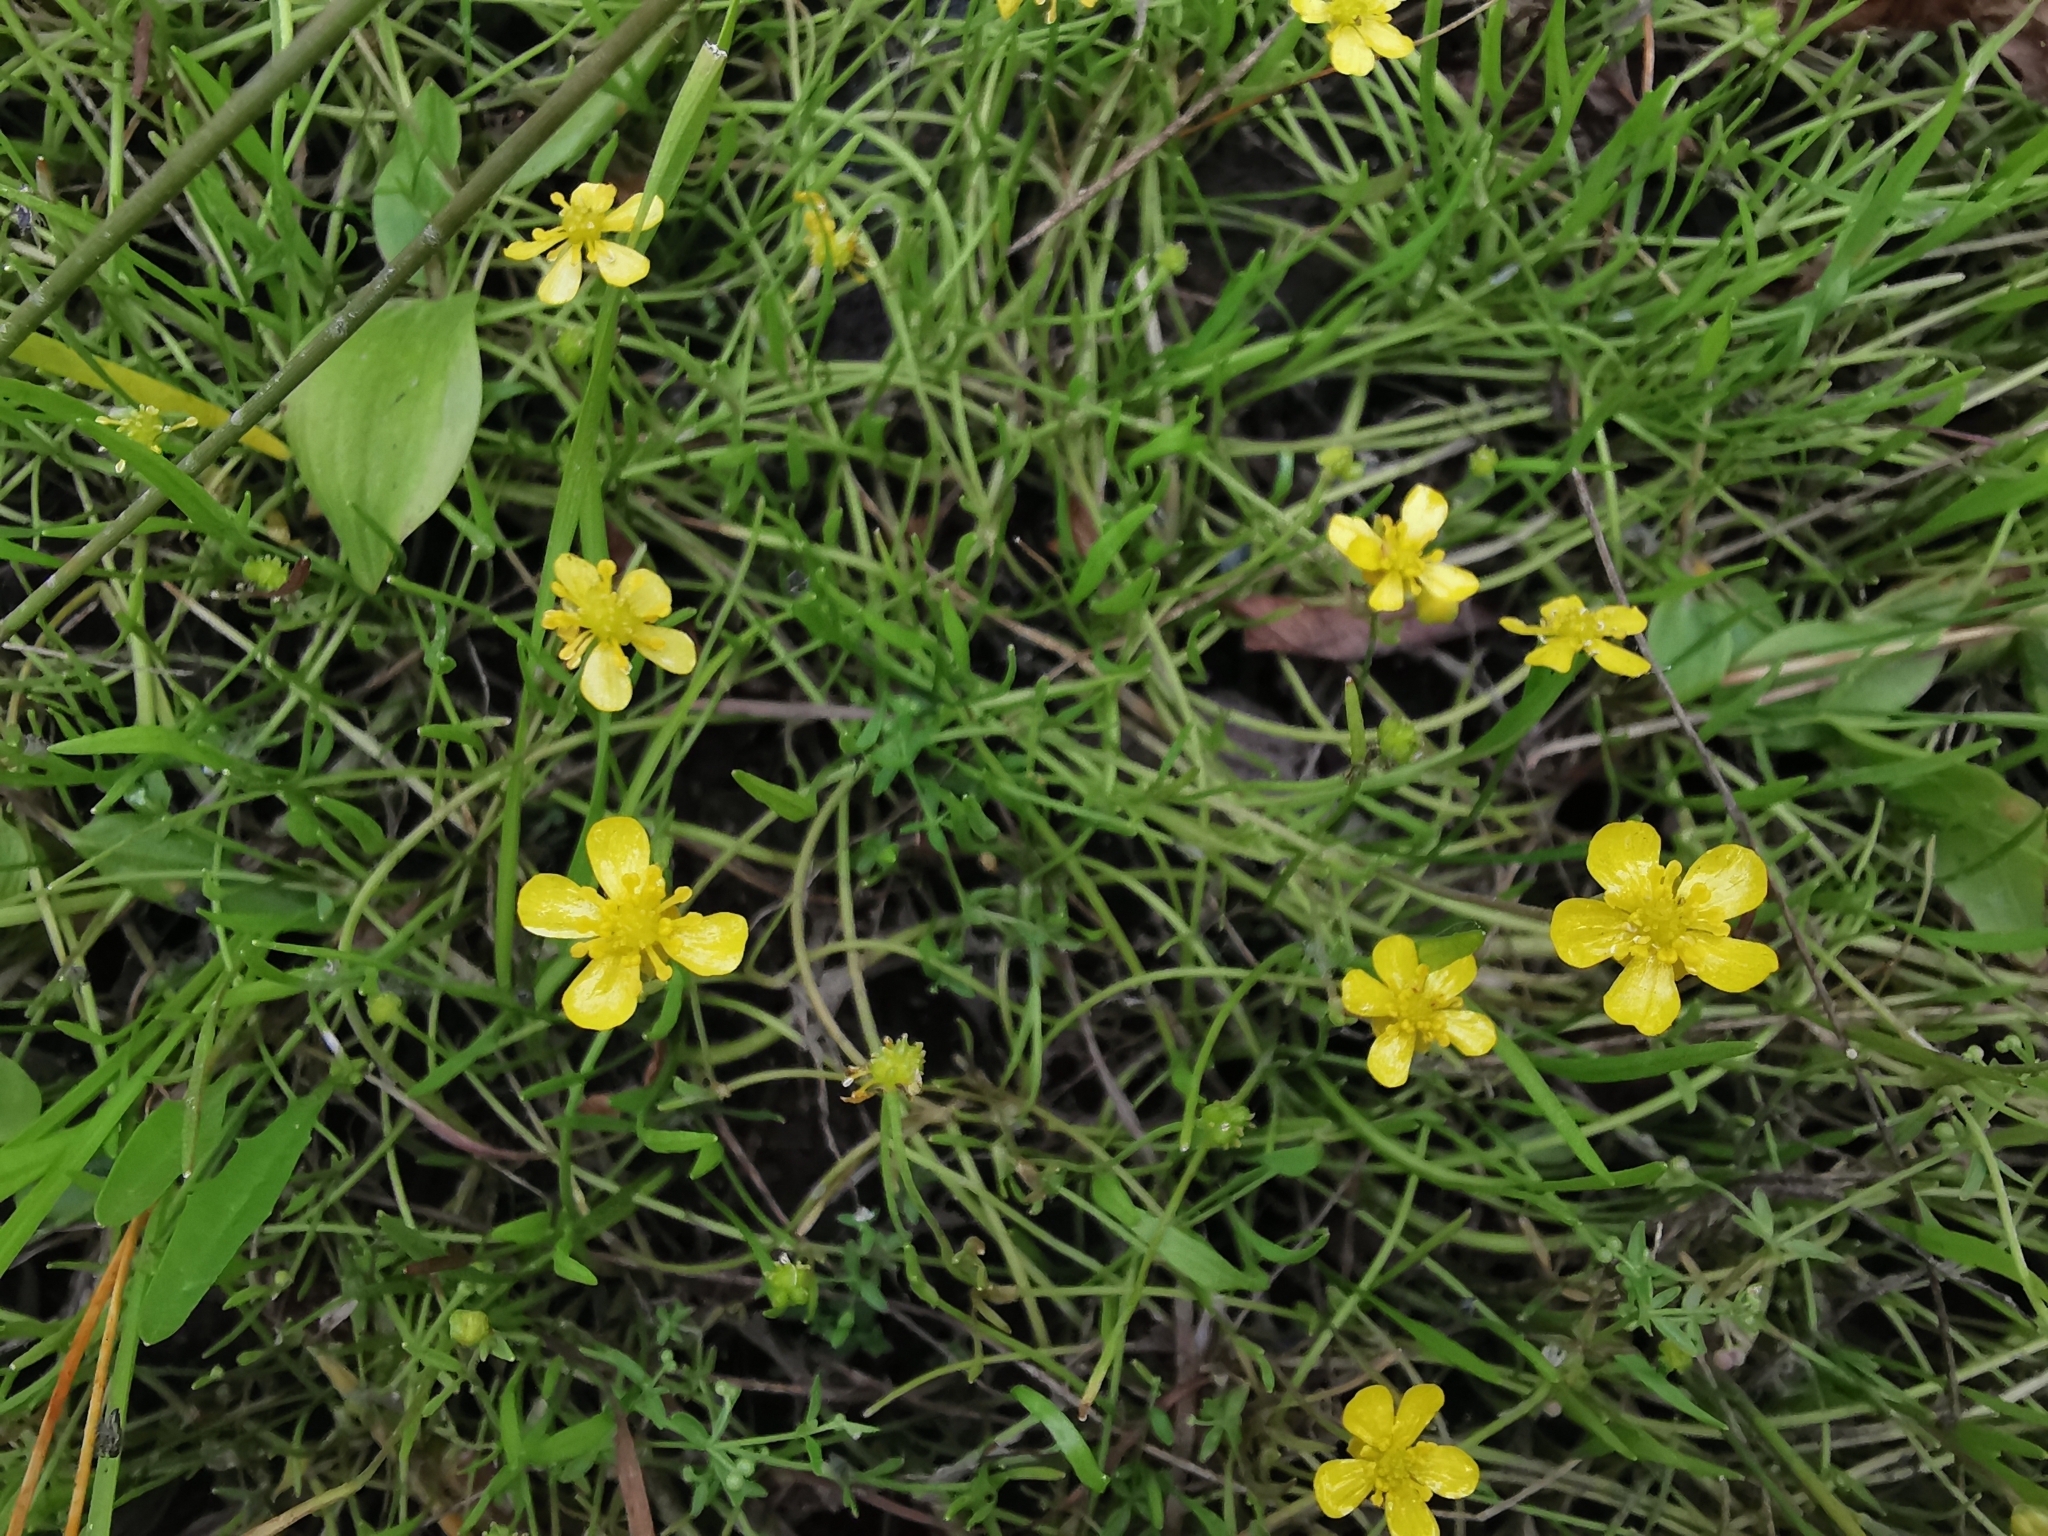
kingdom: Plantae
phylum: Tracheophyta
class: Magnoliopsida
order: Ranunculales
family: Ranunculaceae
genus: Ranunculus
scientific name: Ranunculus reptans
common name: Creeping spearwort
